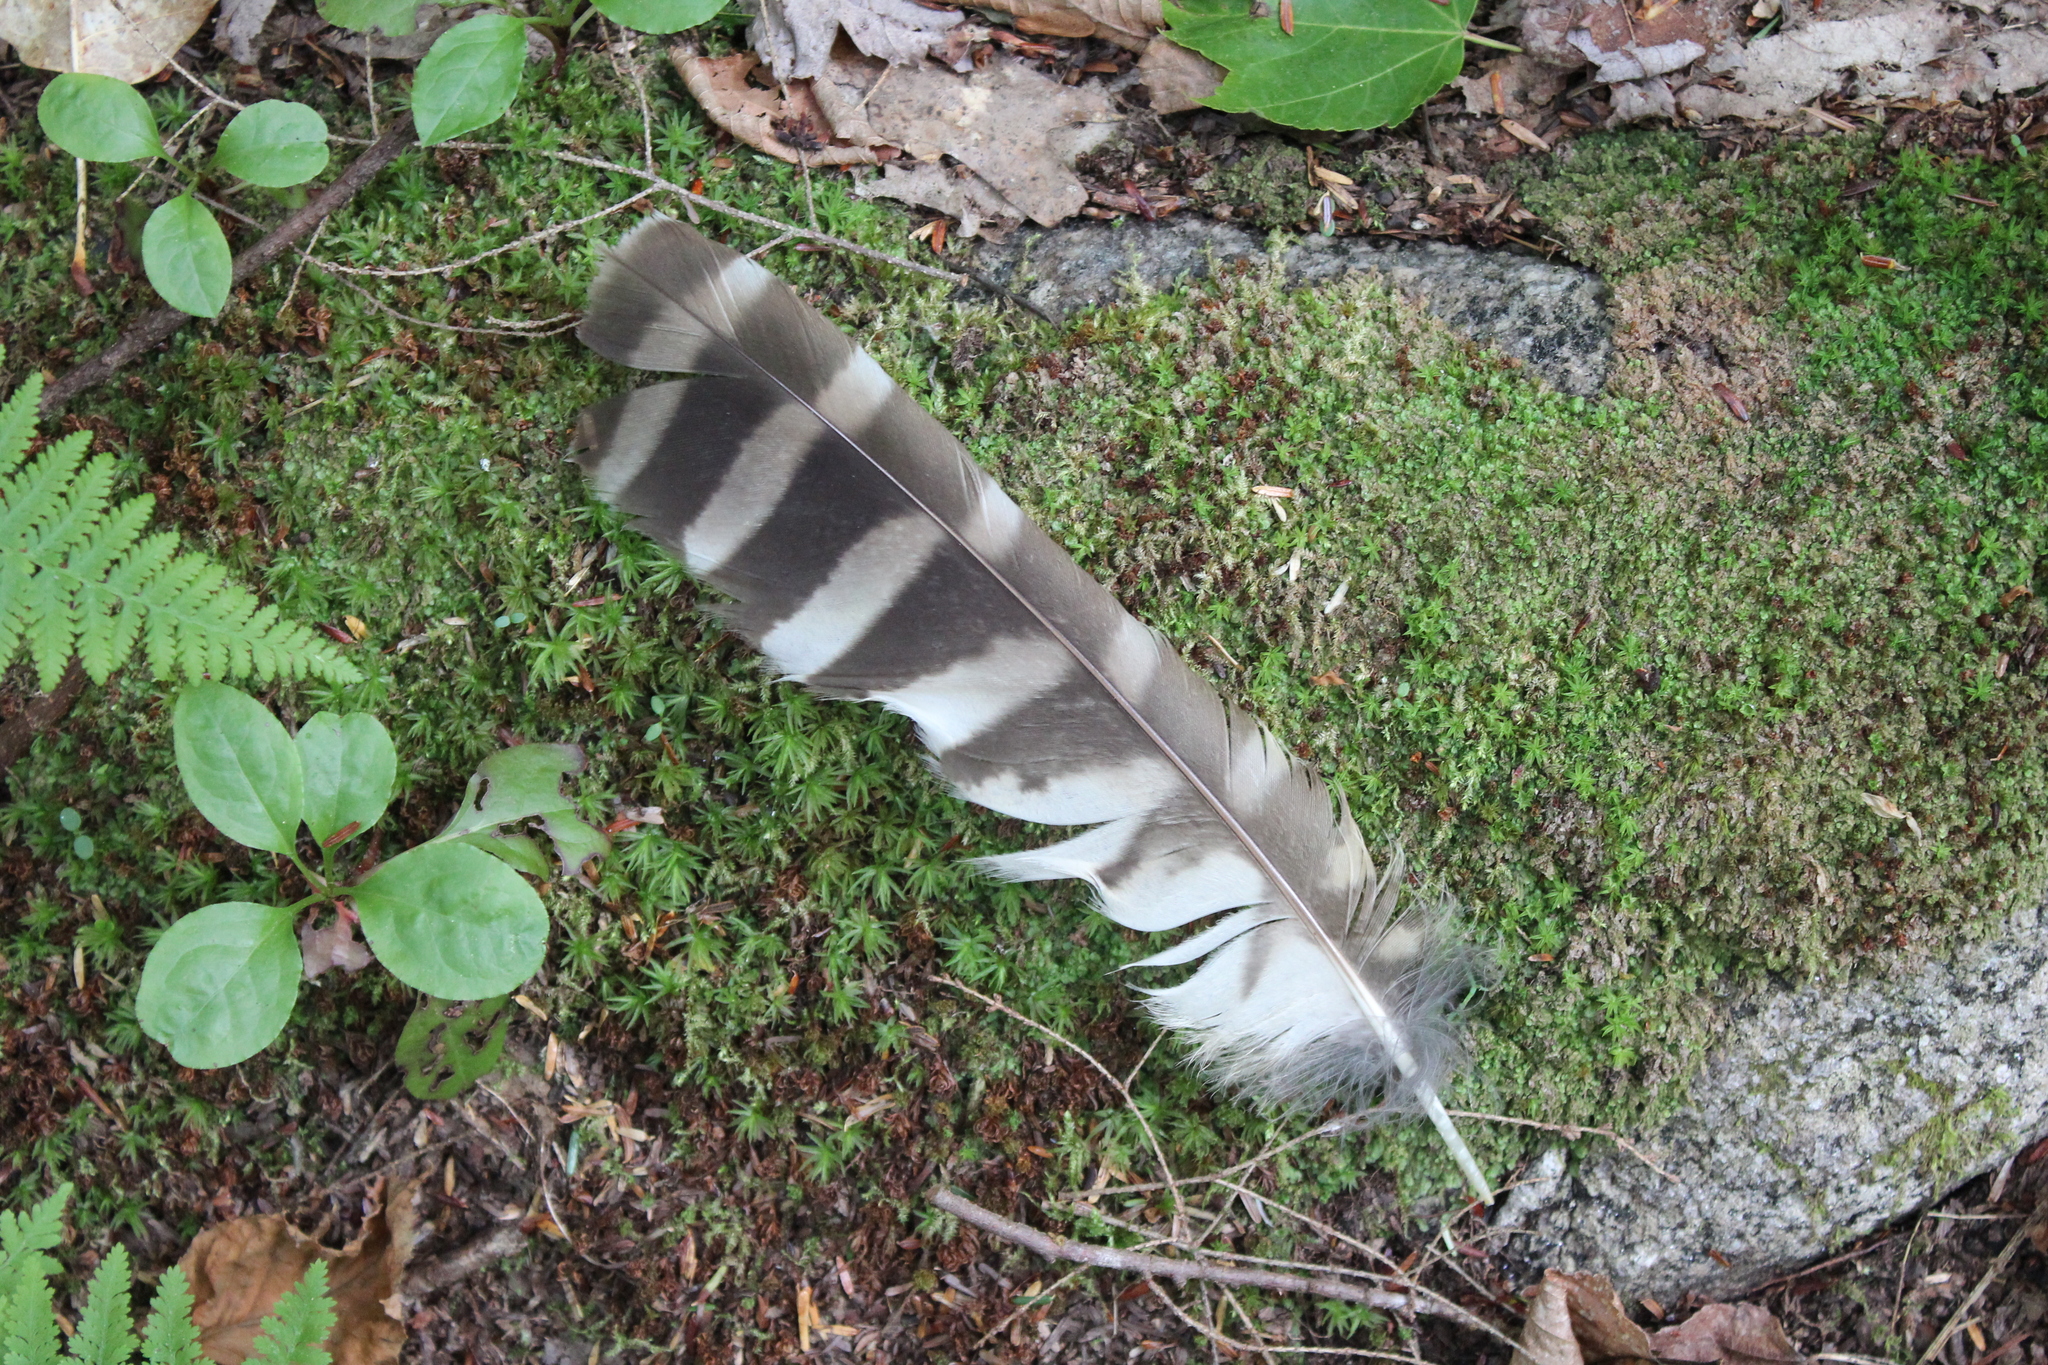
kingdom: Animalia
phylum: Chordata
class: Aves
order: Strigiformes
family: Strigidae
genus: Strix
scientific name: Strix varia
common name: Barred owl
